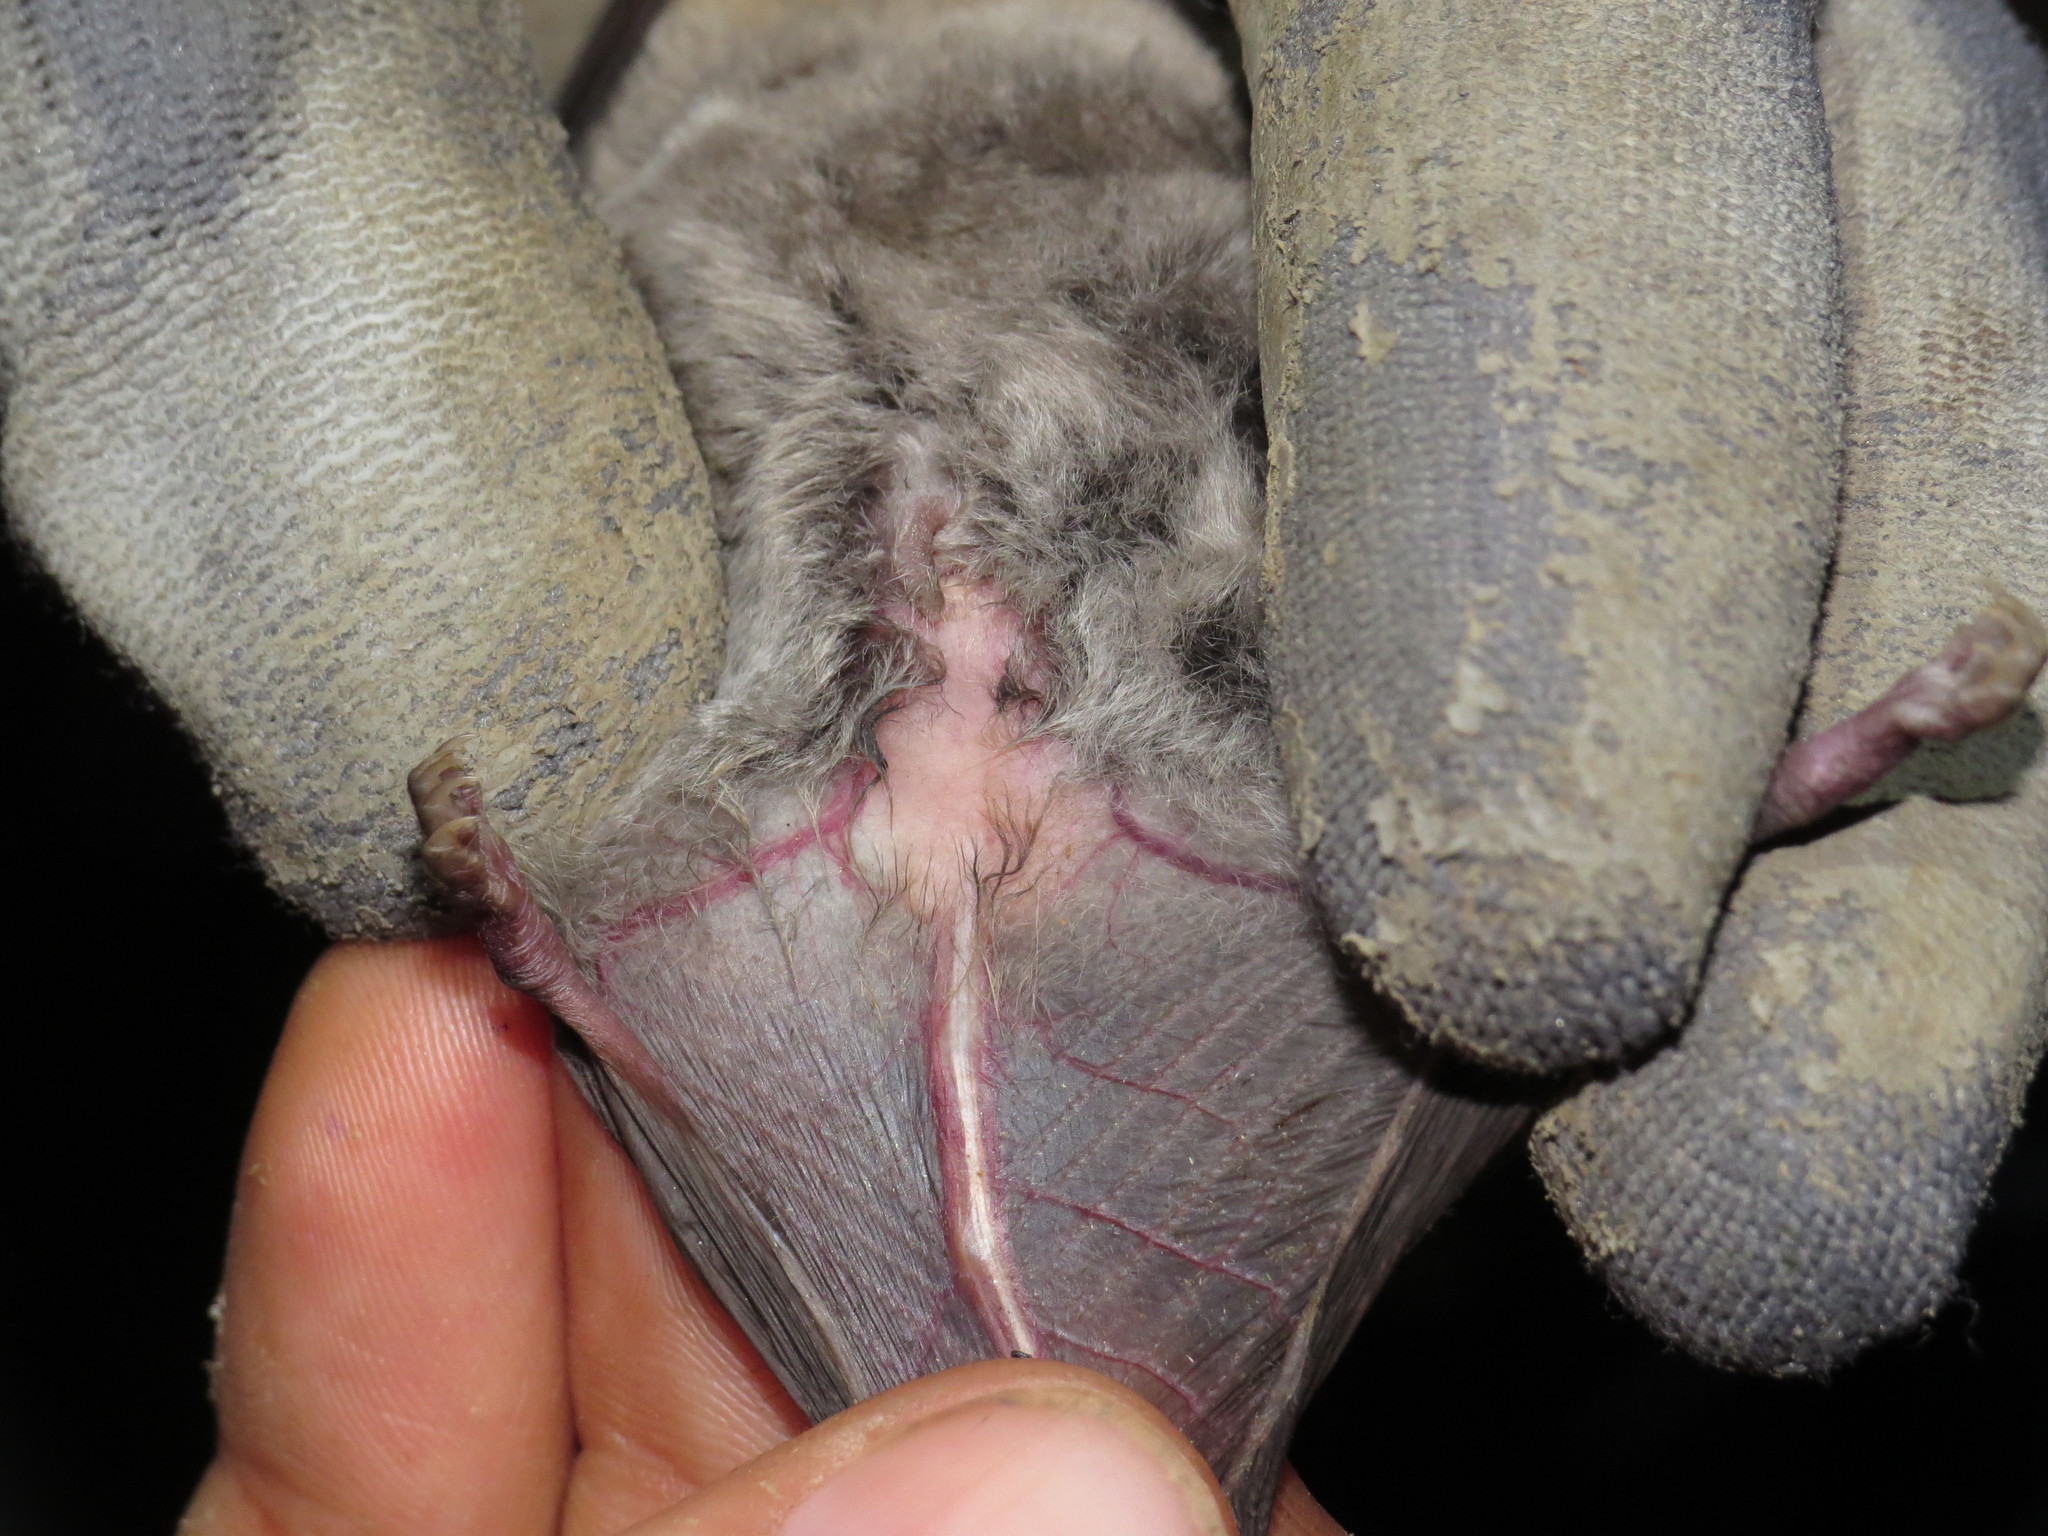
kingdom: Animalia
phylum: Chordata
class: Mammalia
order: Chiroptera
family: Miniopteridae
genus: Miniopterus
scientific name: Miniopterus schreibersii
